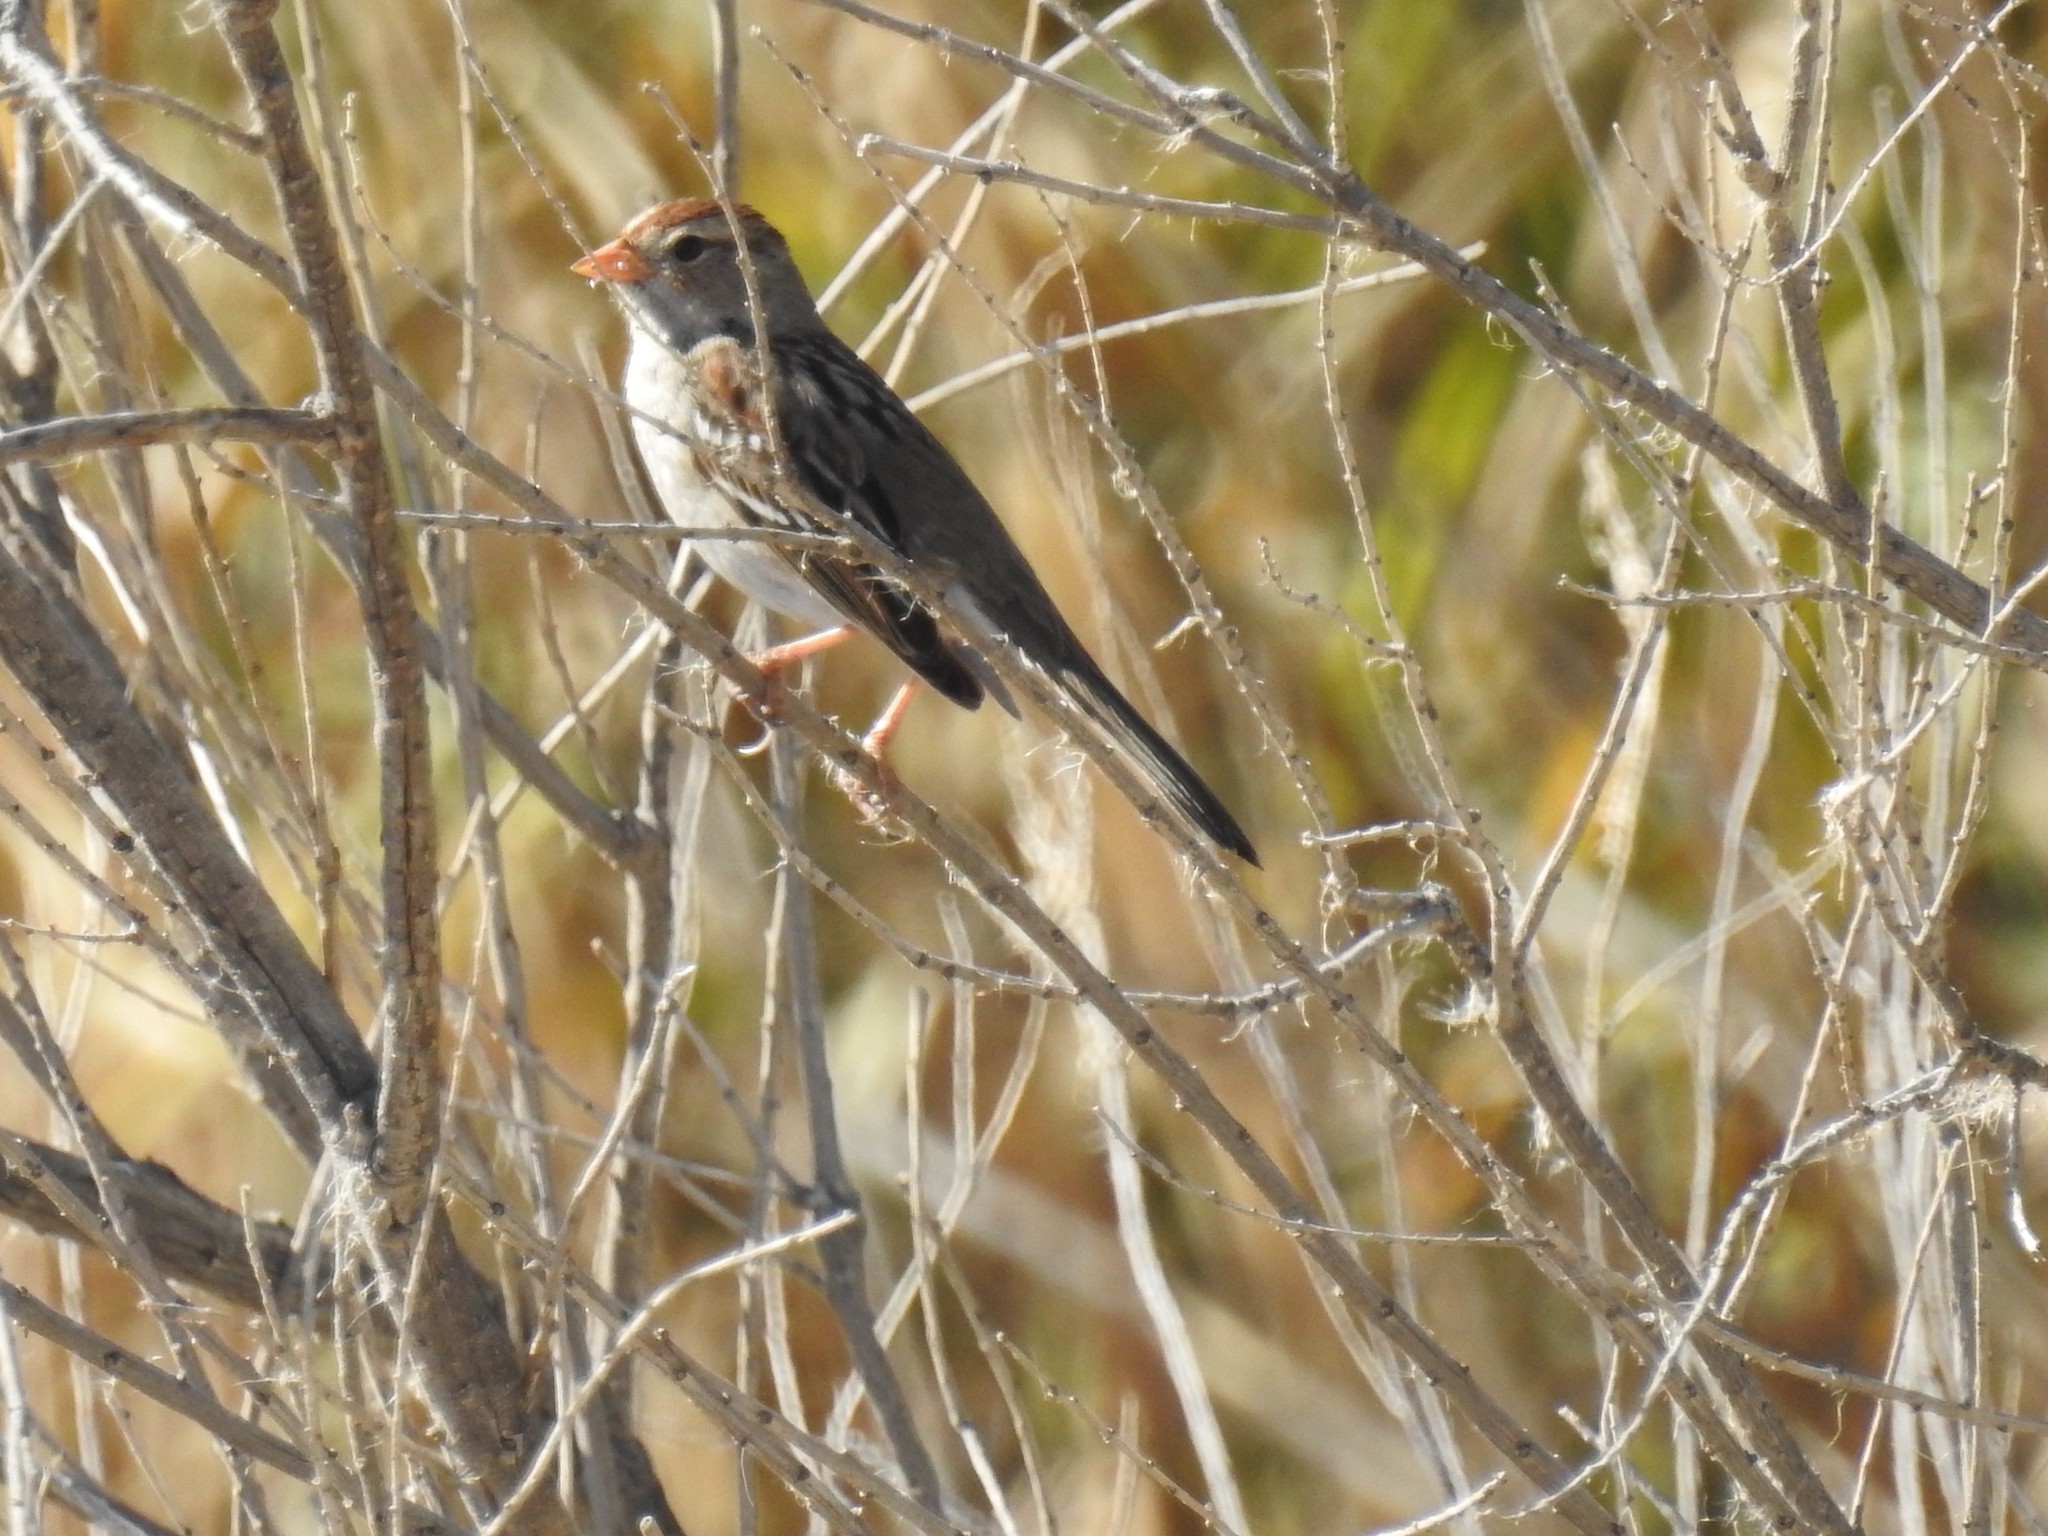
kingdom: Animalia
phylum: Chordata
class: Aves
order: Passeriformes
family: Passerellidae
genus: Zonotrichia
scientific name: Zonotrichia leucophrys
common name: White-crowned sparrow
